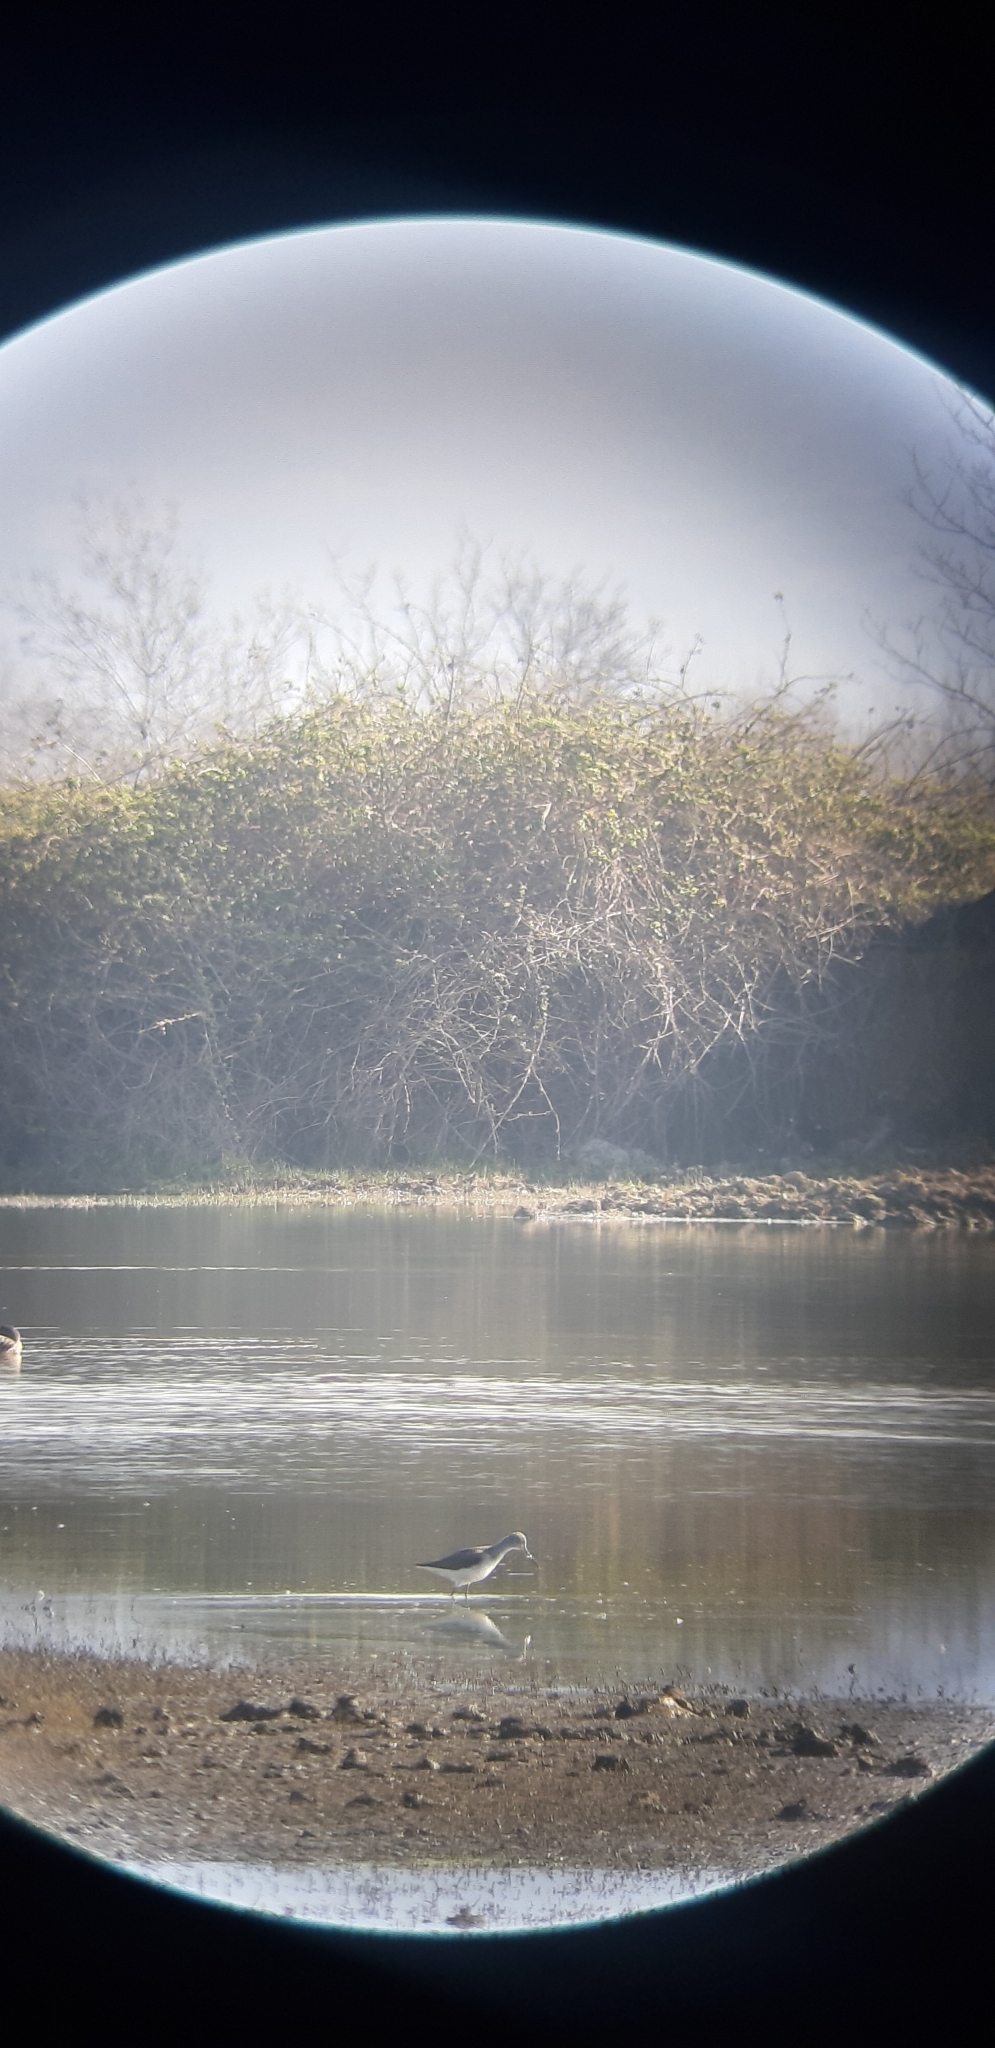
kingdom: Animalia
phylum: Chordata
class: Aves
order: Charadriiformes
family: Scolopacidae
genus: Tringa
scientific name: Tringa nebularia
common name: Common greenshank
